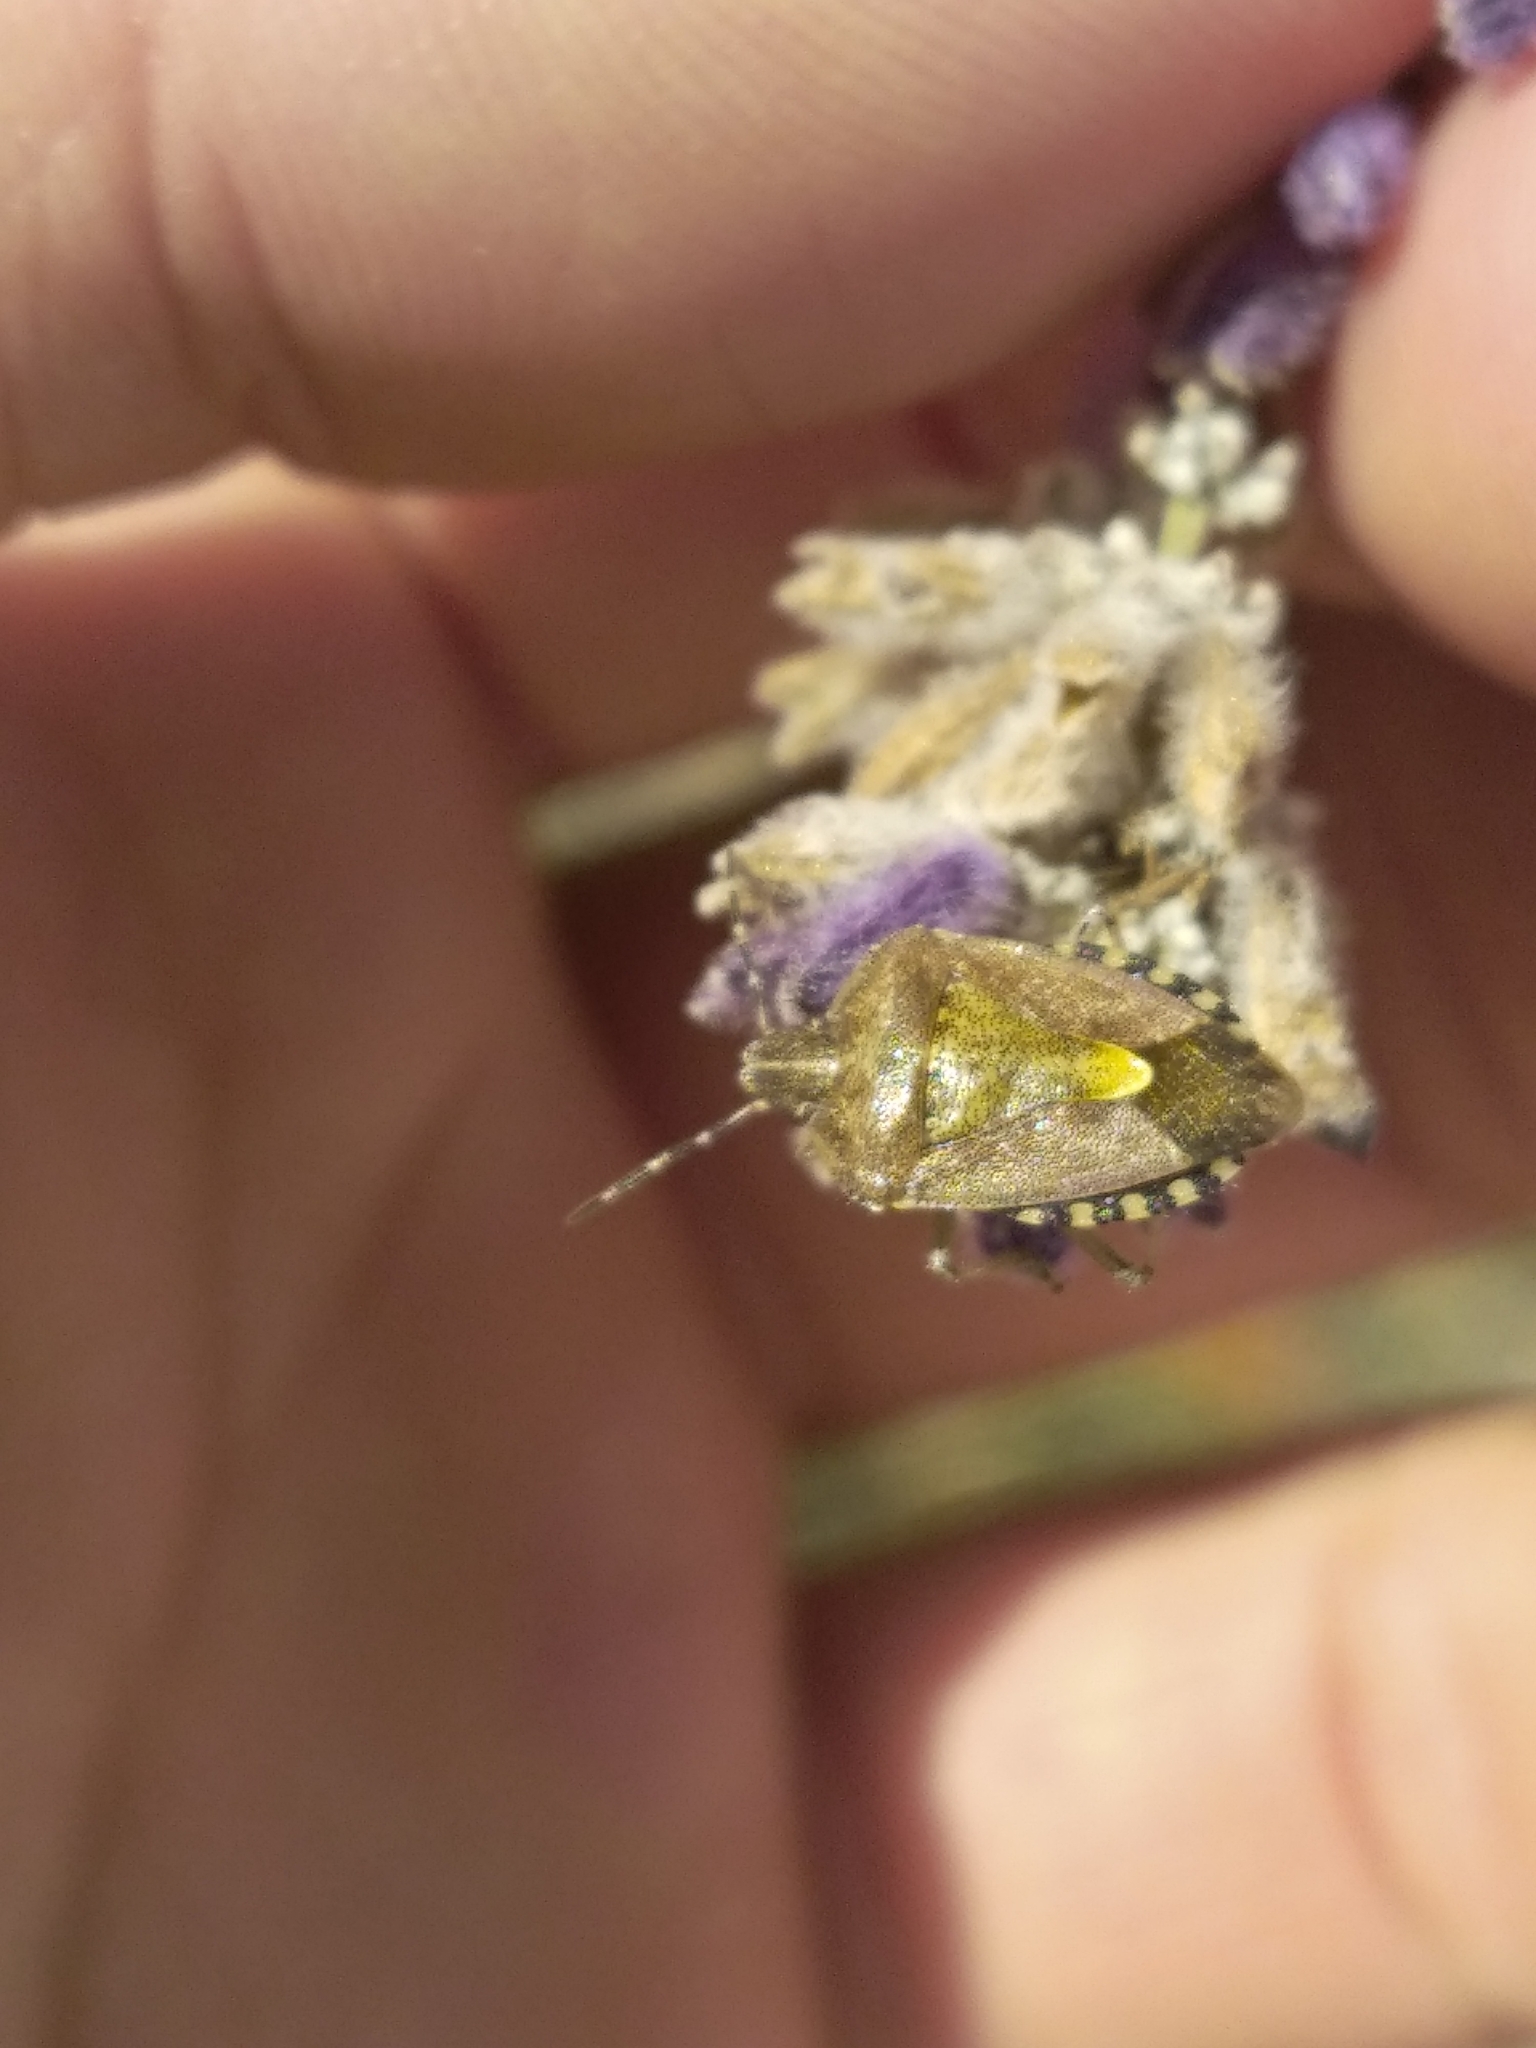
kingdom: Animalia
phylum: Arthropoda
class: Insecta
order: Hemiptera
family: Pentatomidae
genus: Dolycoris
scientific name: Dolycoris baccarum
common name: Sloe bug
